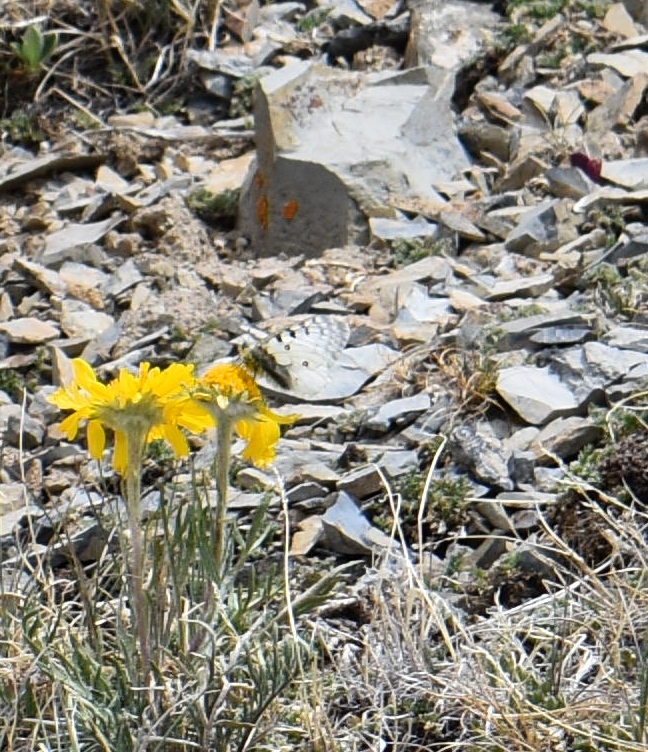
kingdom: Animalia
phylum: Arthropoda
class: Insecta
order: Lepidoptera
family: Papilionidae
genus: Parnassius
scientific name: Parnassius smintheus
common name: Mountain parnassian
